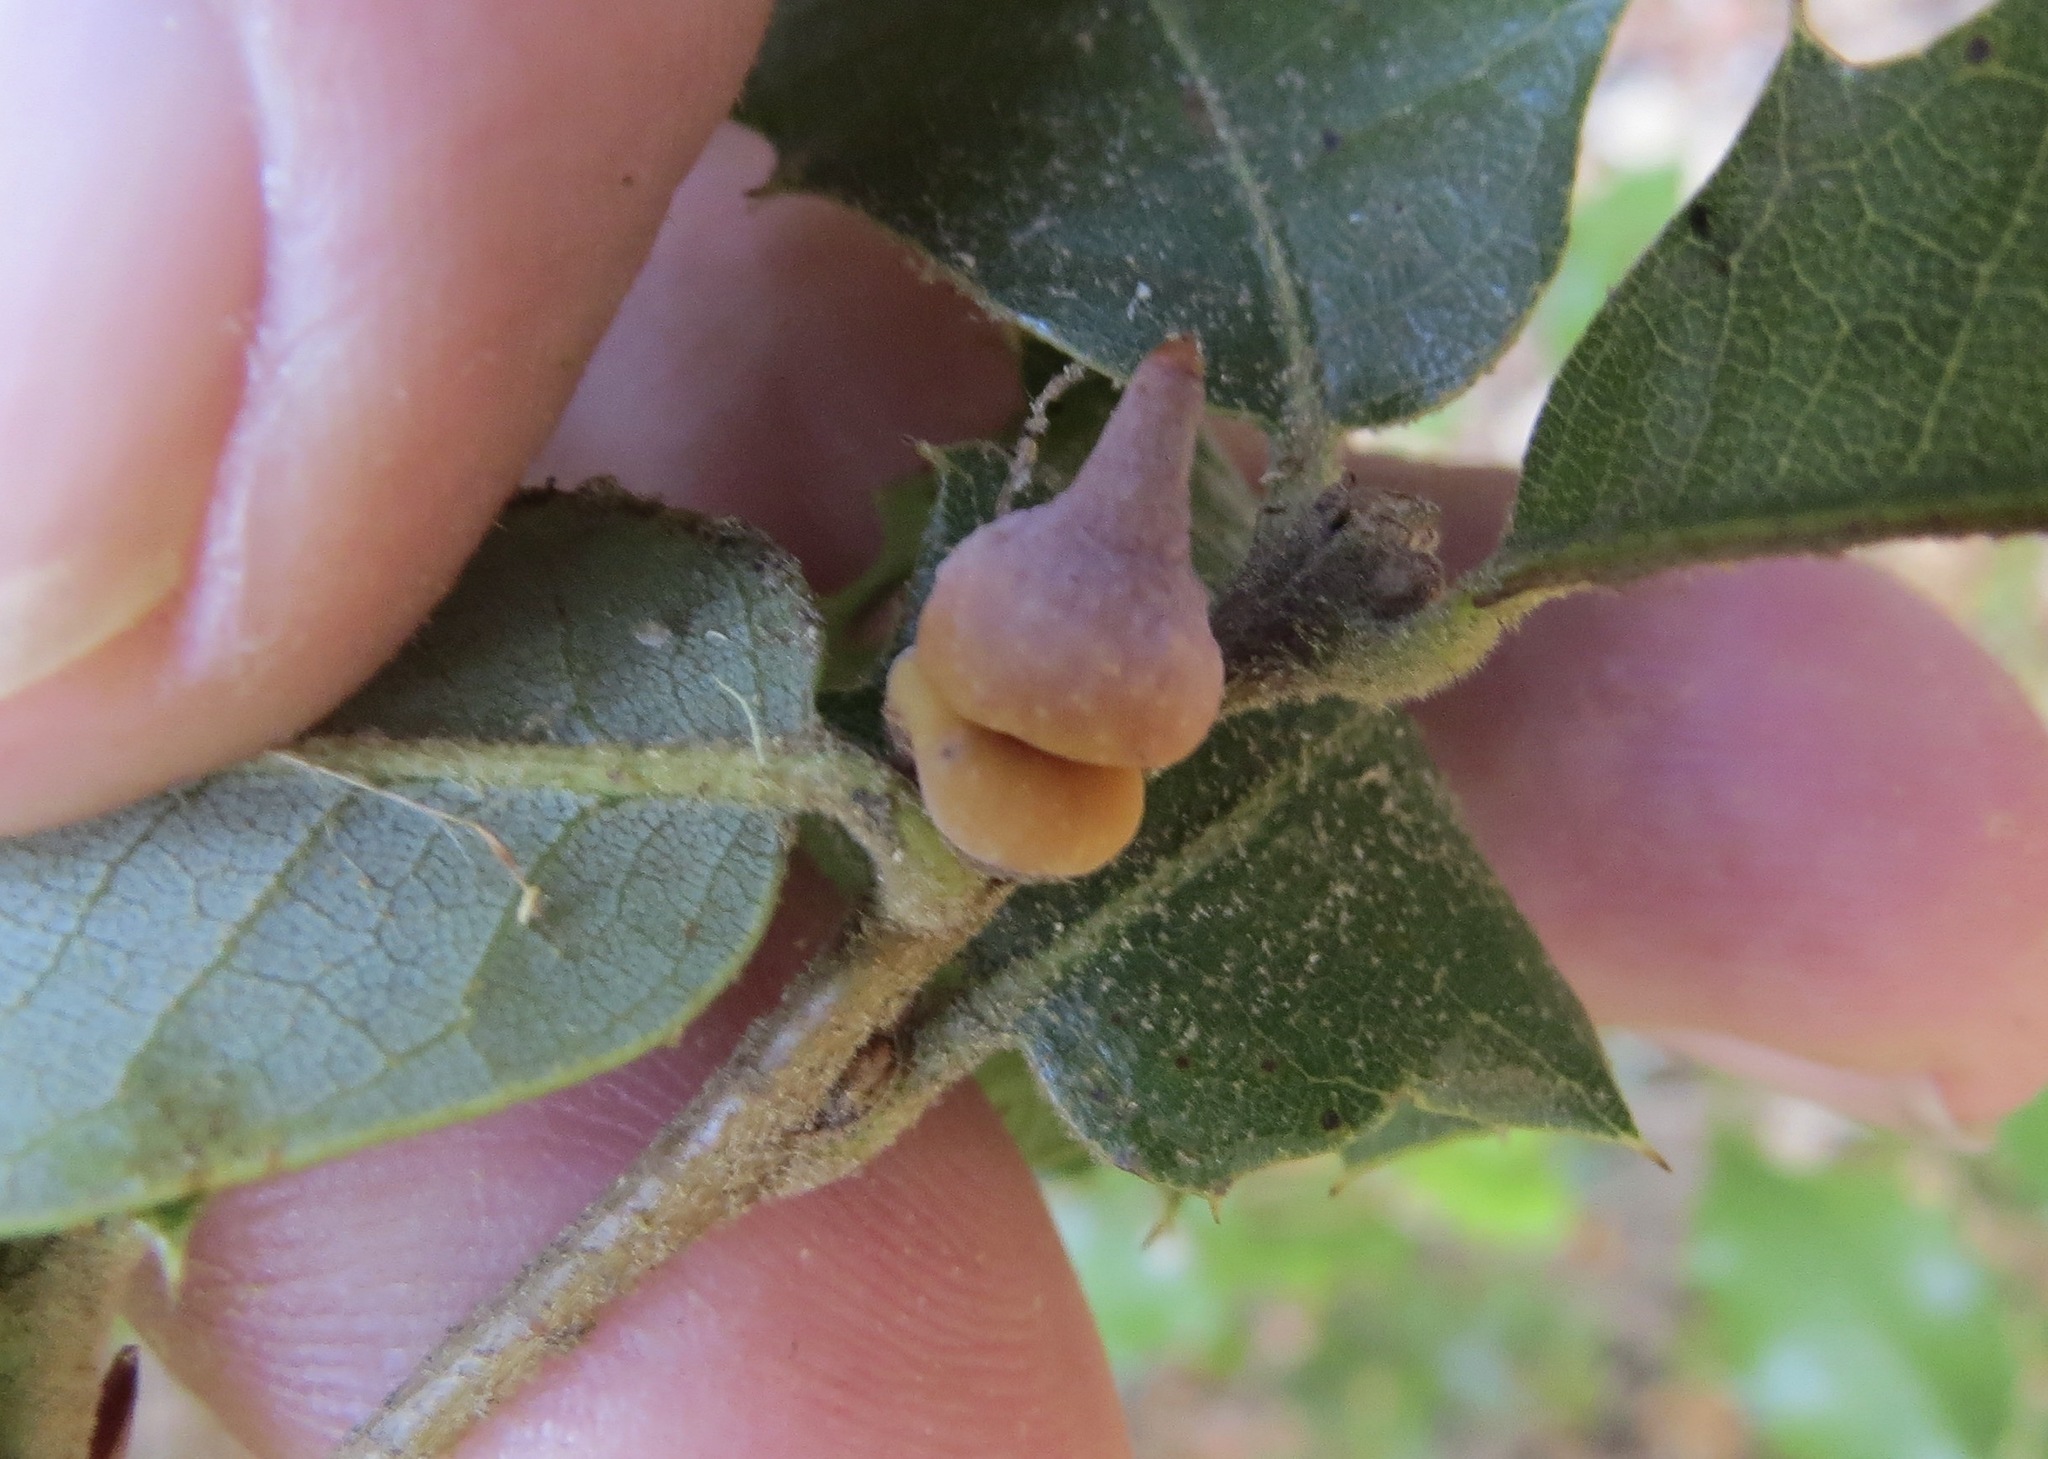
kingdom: Animalia
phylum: Arthropoda
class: Insecta
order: Hymenoptera
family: Cynipidae
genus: Heteroecus
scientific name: Heteroecus
